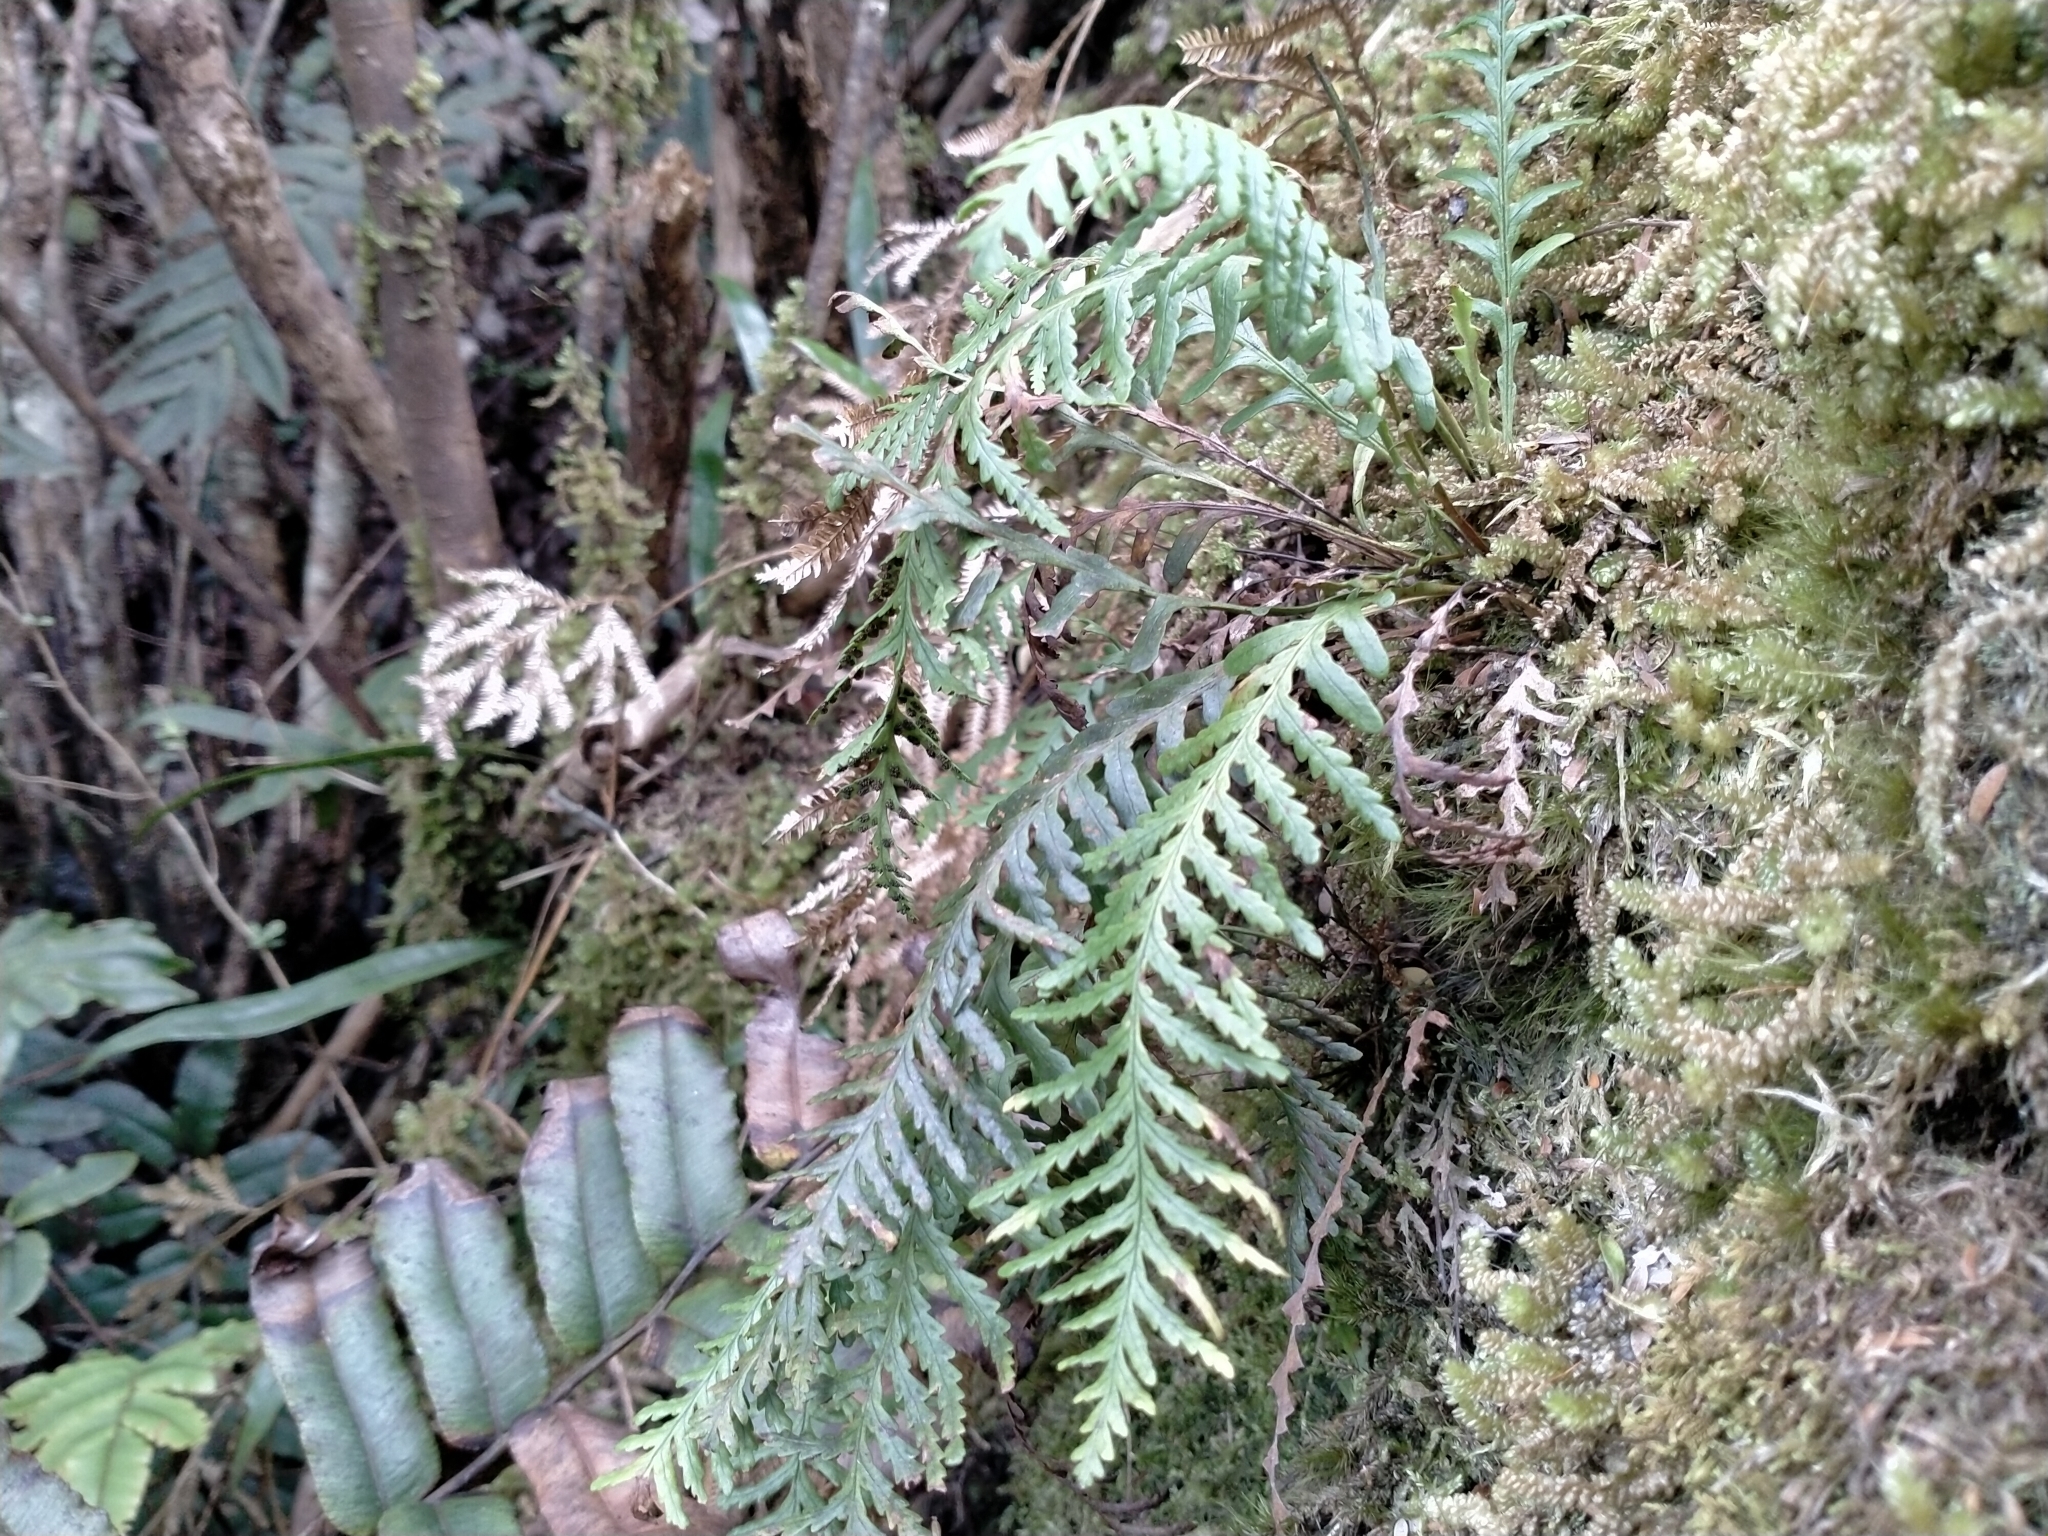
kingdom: Plantae
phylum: Tracheophyta
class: Polypodiopsida
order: Polypodiales
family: Polypodiaceae
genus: Notogrammitis
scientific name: Notogrammitis heterophylla
